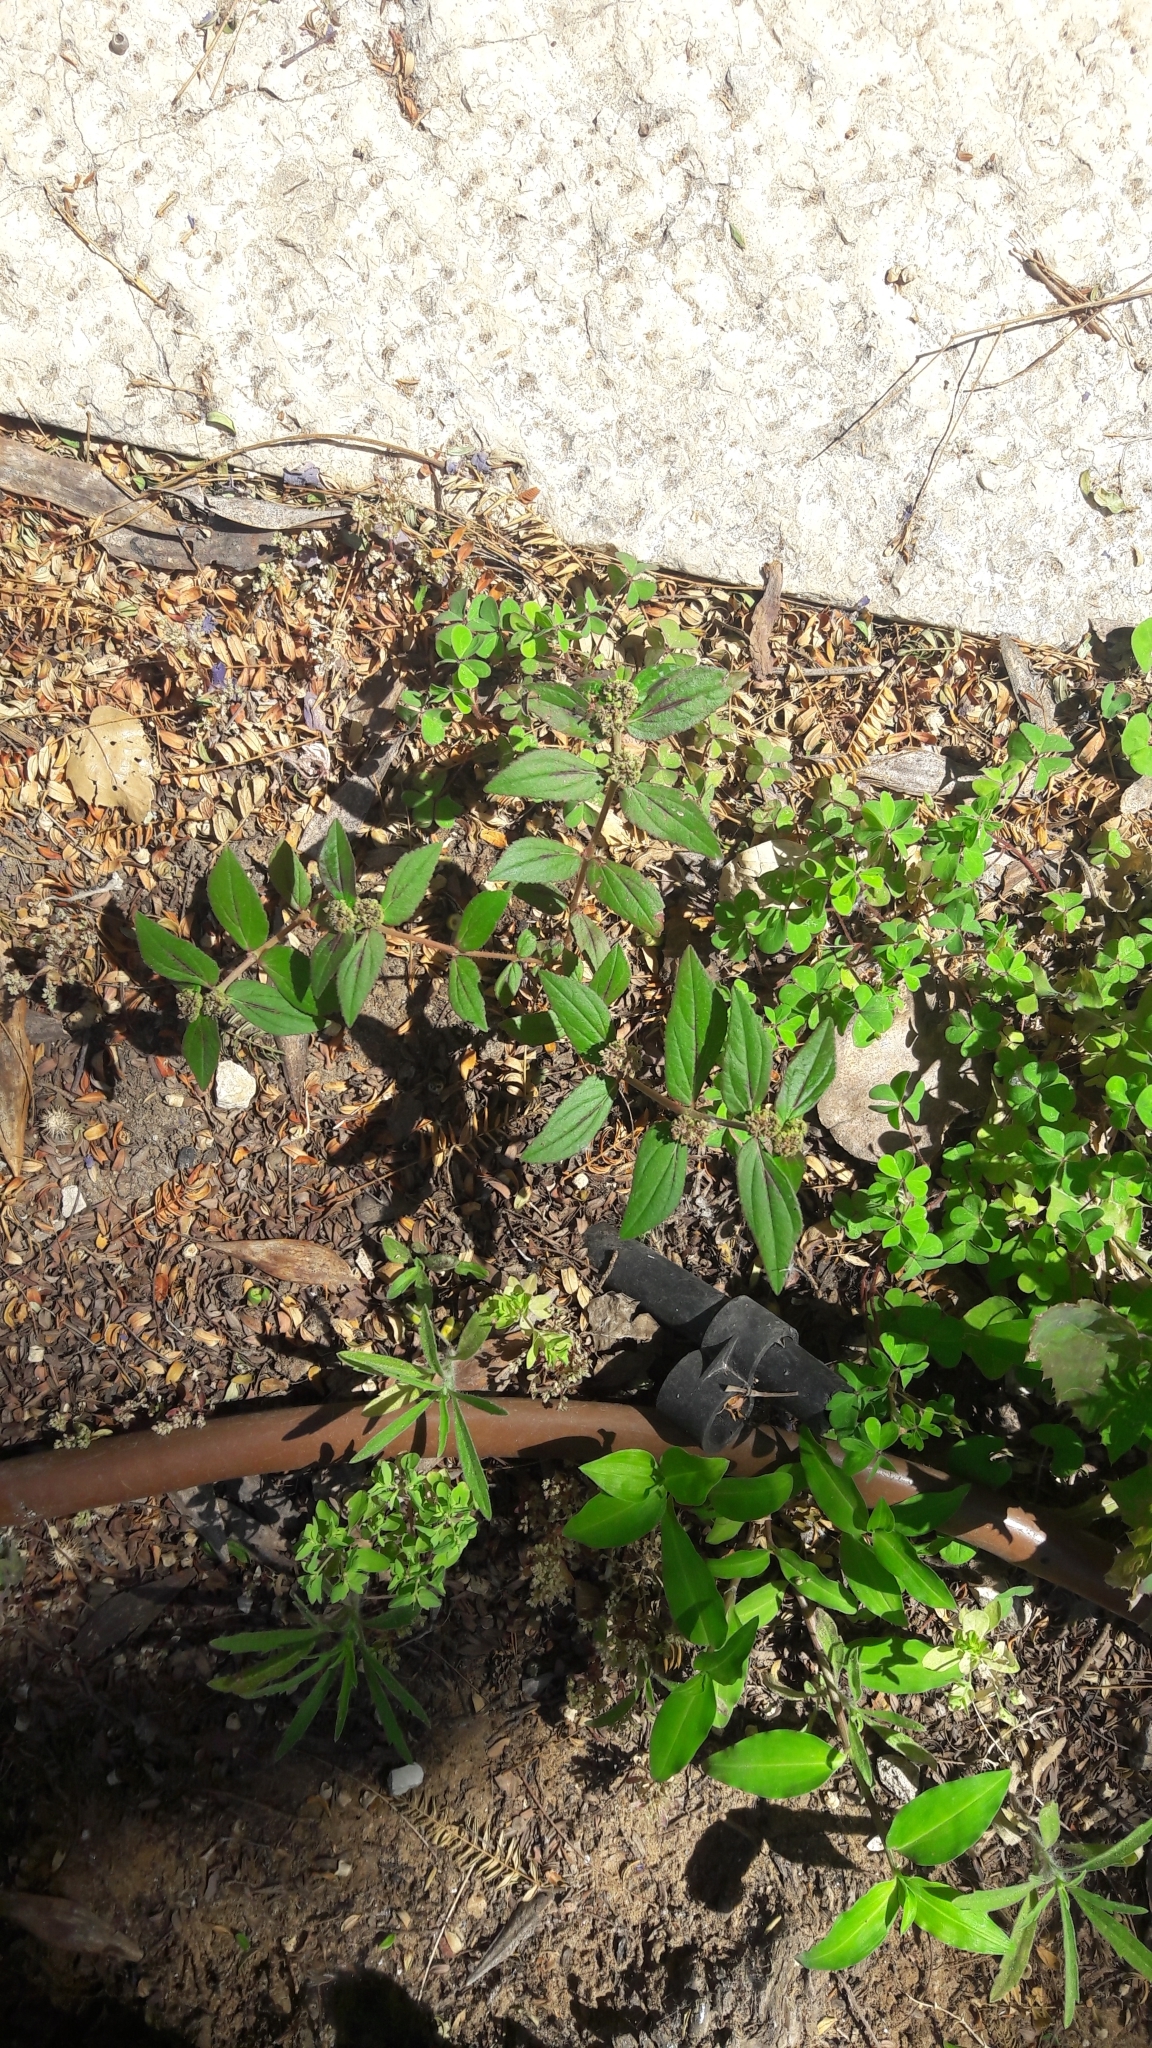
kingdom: Plantae
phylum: Tracheophyta
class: Magnoliopsida
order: Malpighiales
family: Euphorbiaceae
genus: Euphorbia
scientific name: Euphorbia hirta
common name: Pillpod sandmat
